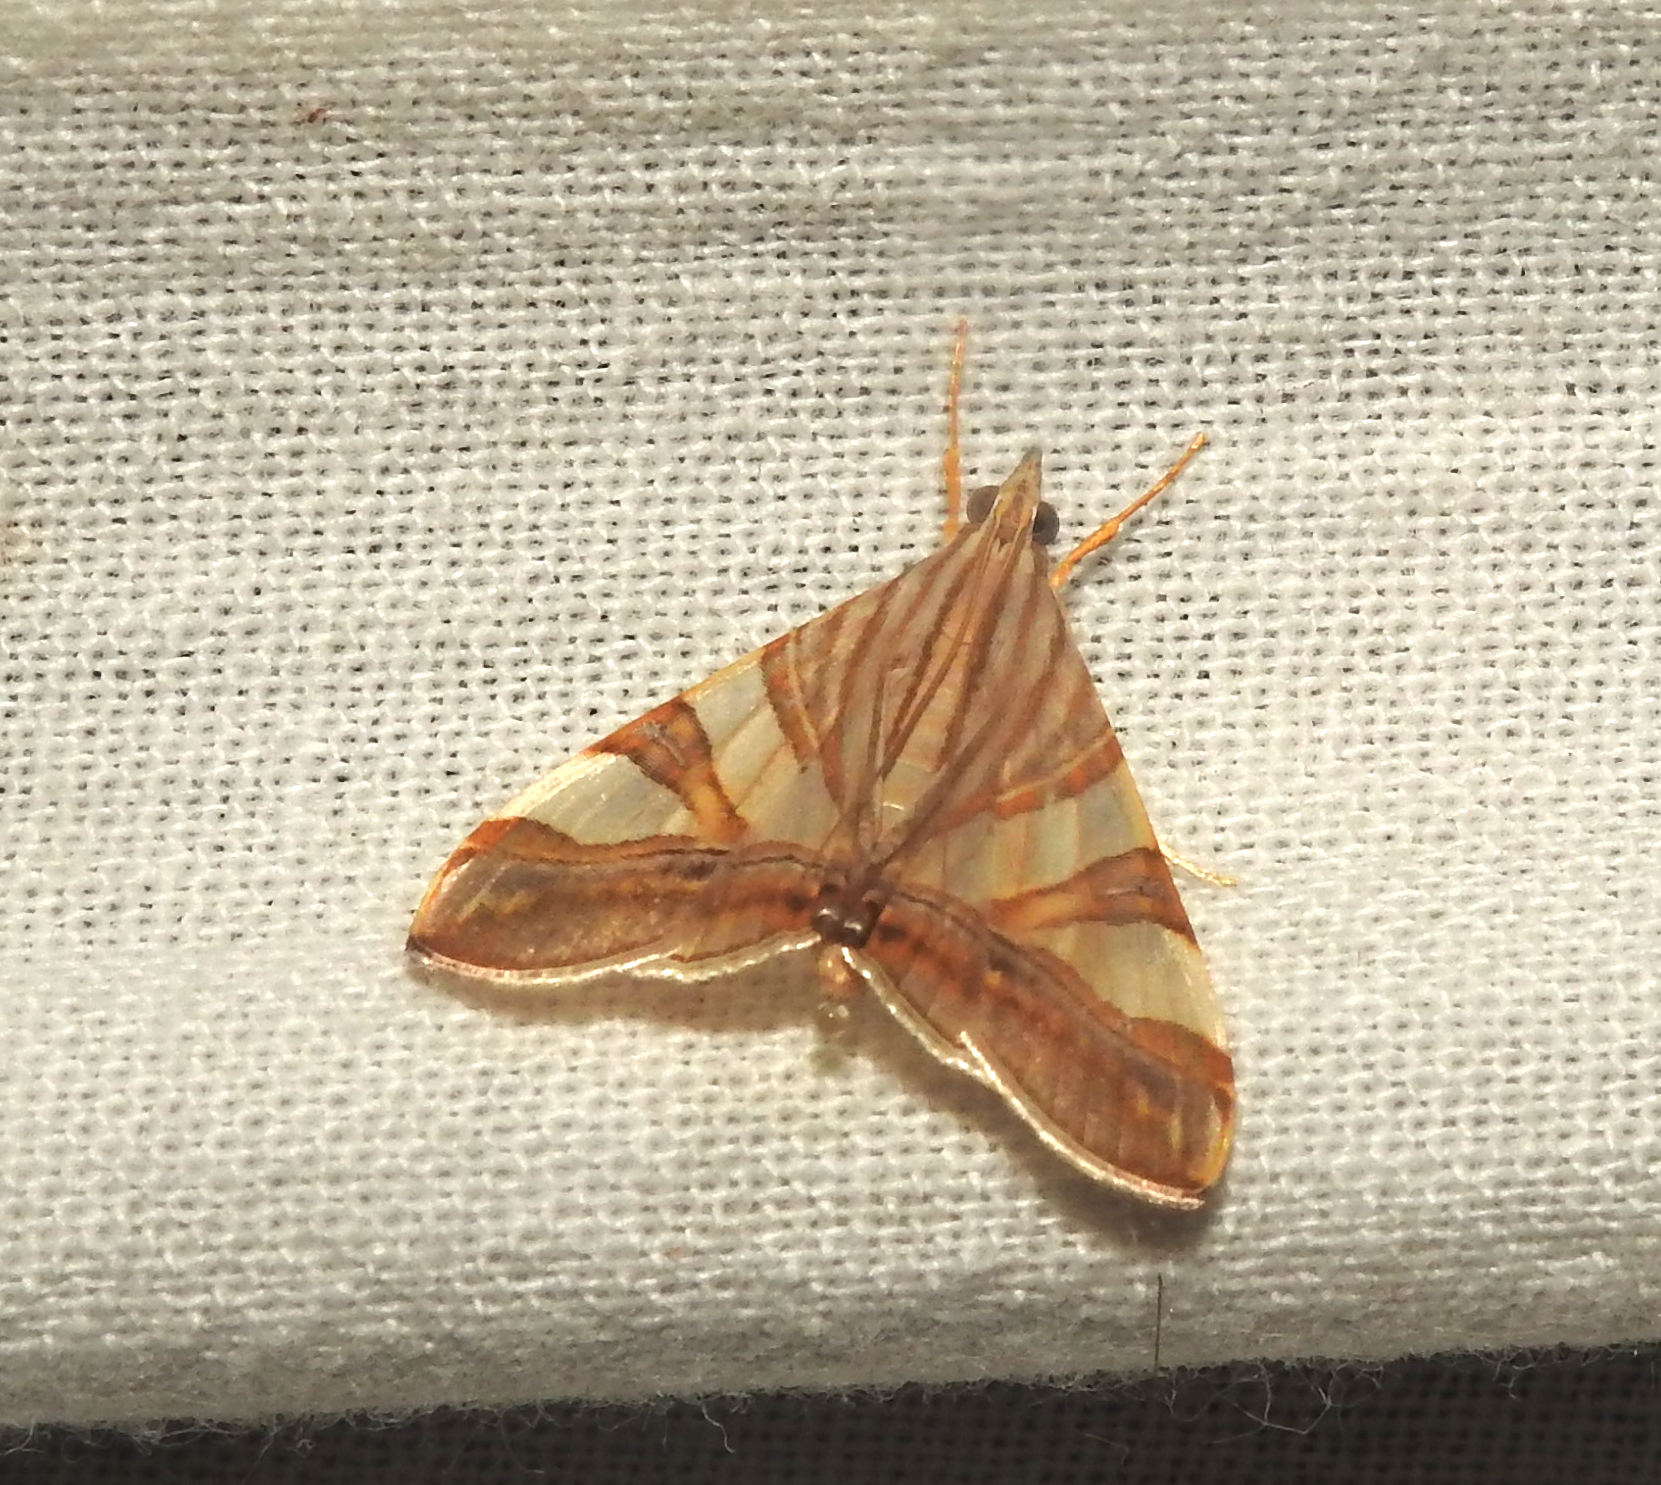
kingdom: Animalia
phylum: Arthropoda
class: Insecta
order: Lepidoptera
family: Crambidae
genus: Agrioglypta
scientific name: Agrioglypta zelimalis
